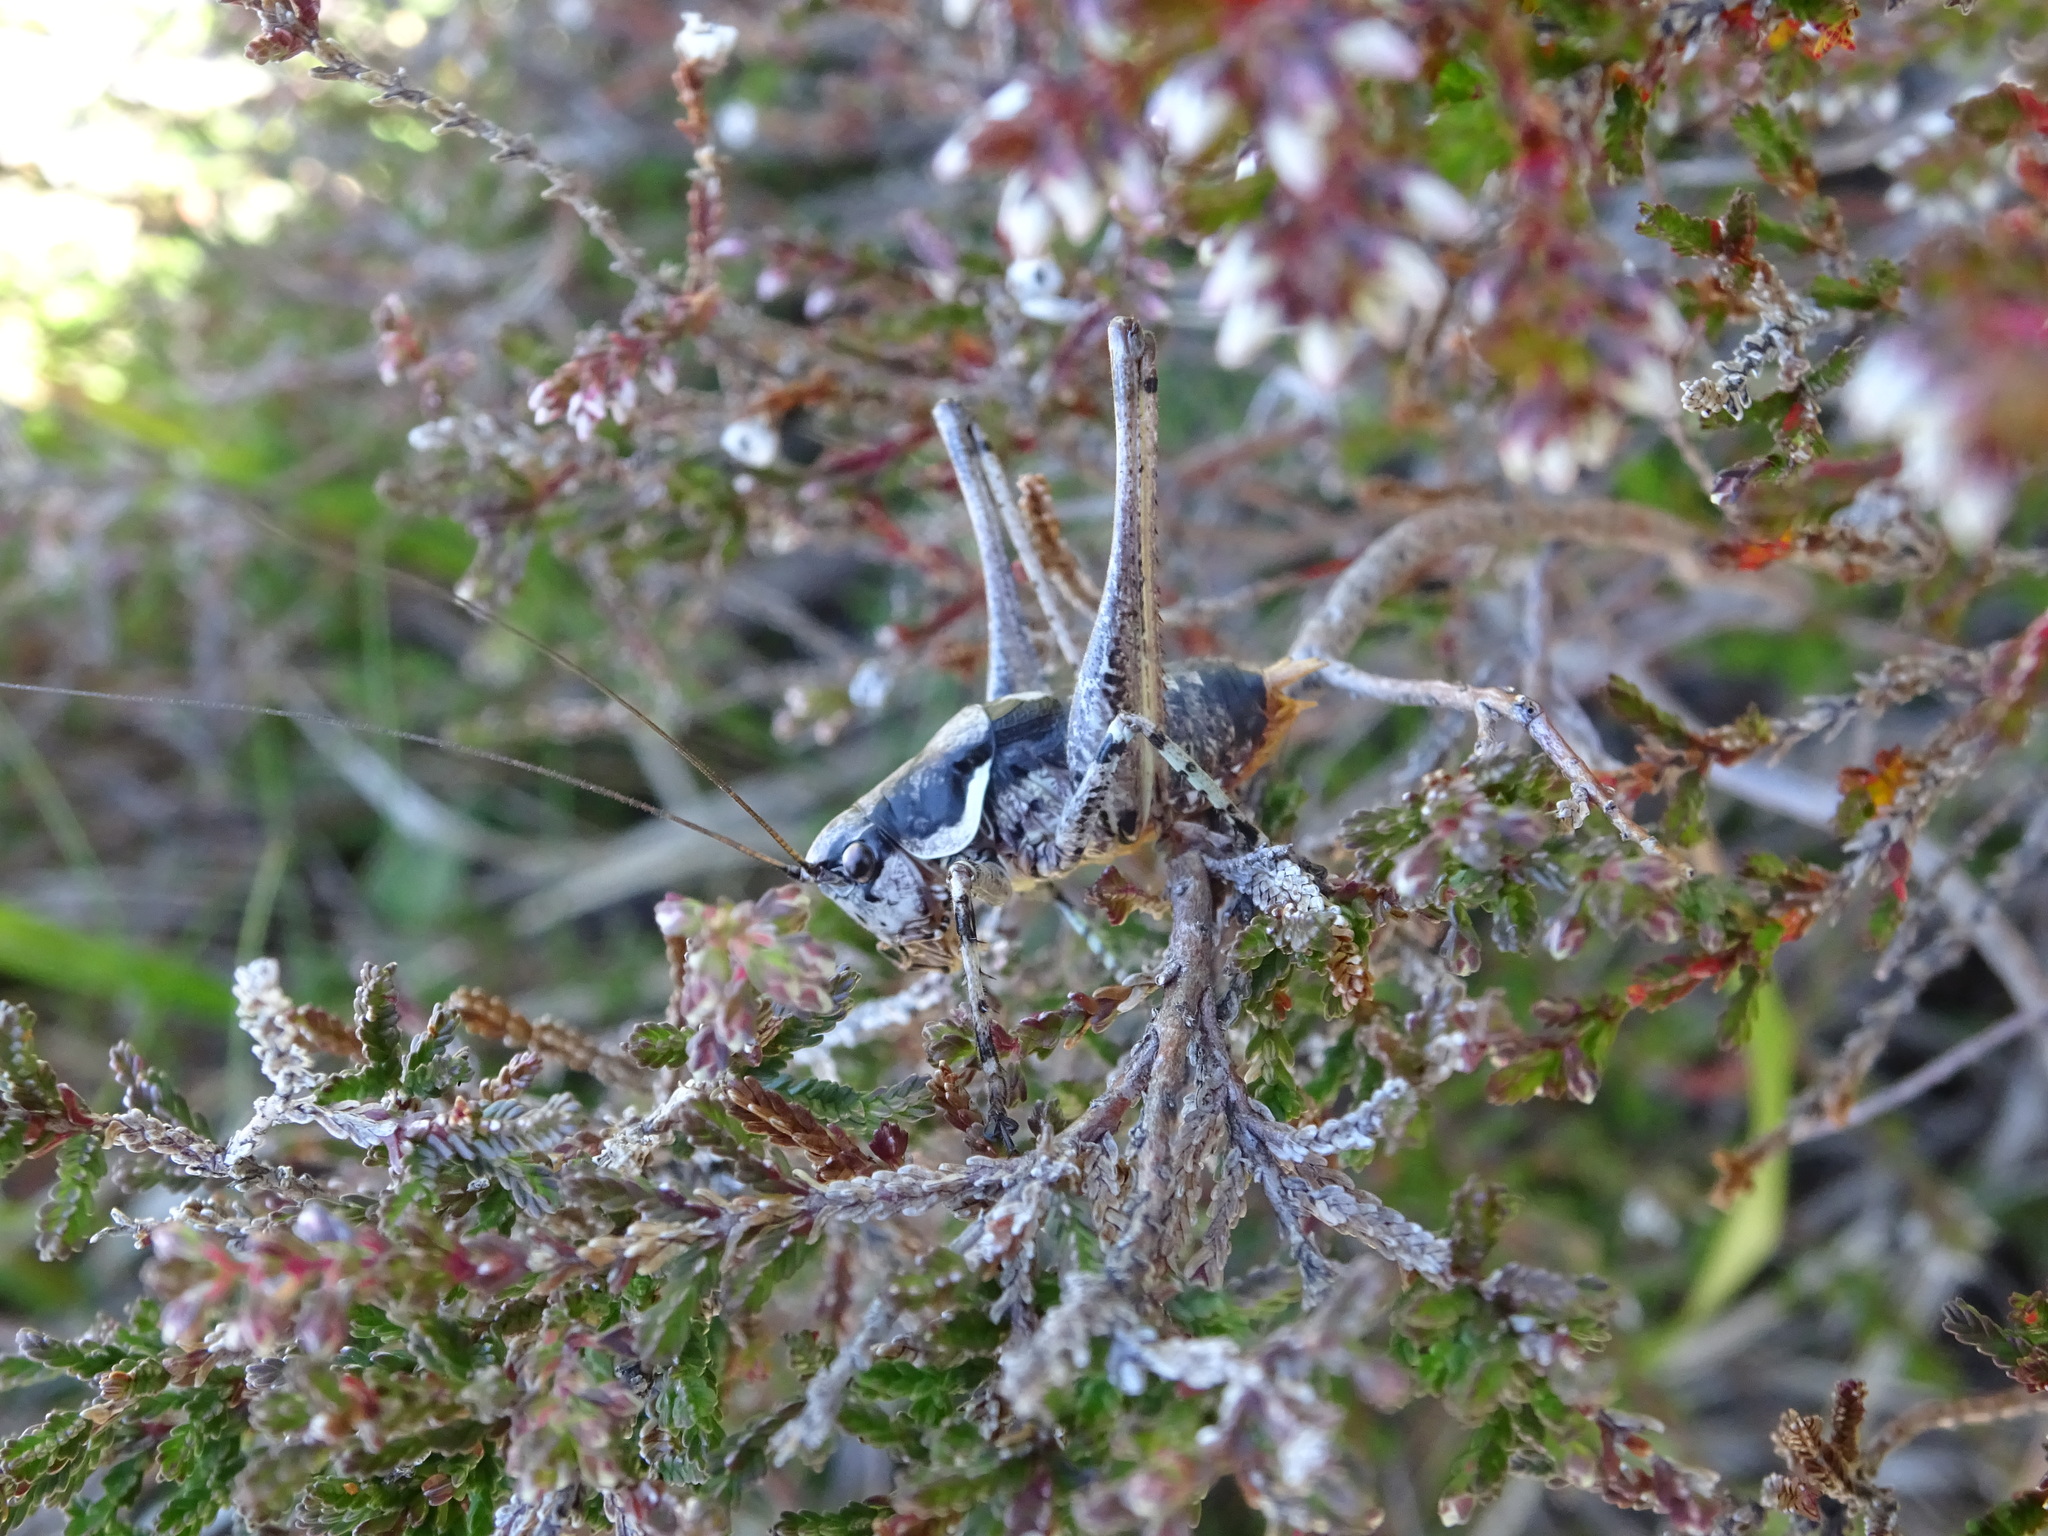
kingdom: Animalia
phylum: Arthropoda
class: Insecta
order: Orthoptera
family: Tettigoniidae
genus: Antaxius
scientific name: Antaxius pedestris
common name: Common mountain bush-cricket
